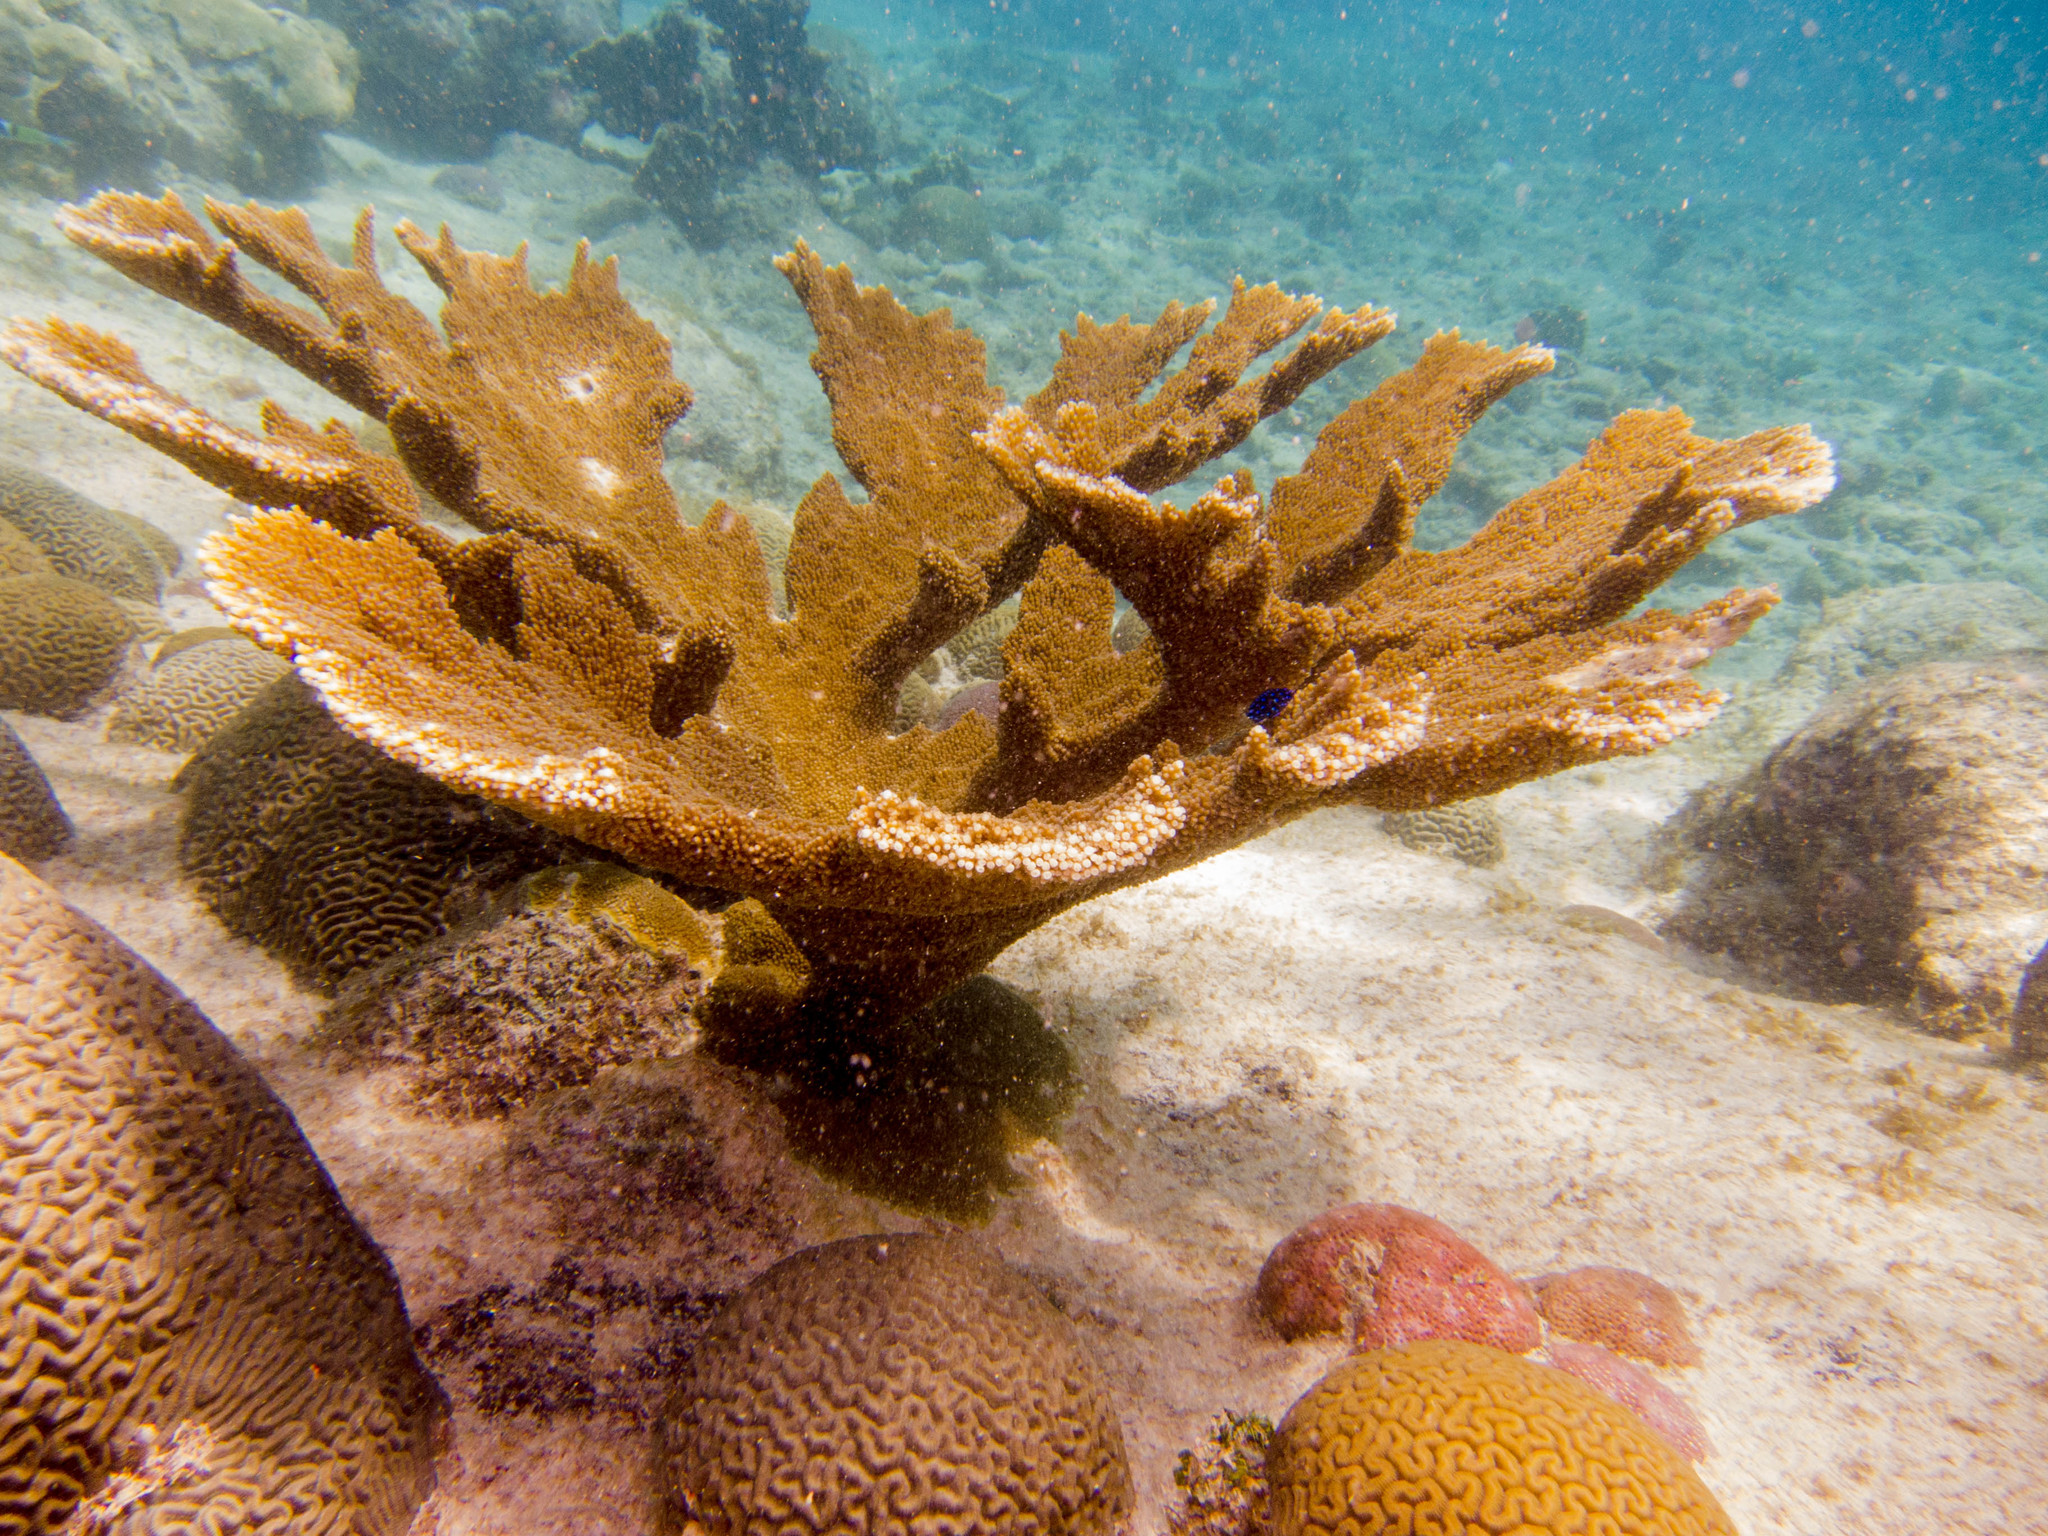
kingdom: Animalia
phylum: Cnidaria
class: Anthozoa
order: Scleractinia
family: Acroporidae
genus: Acropora
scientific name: Acropora palmata
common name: Elkhorn coral
